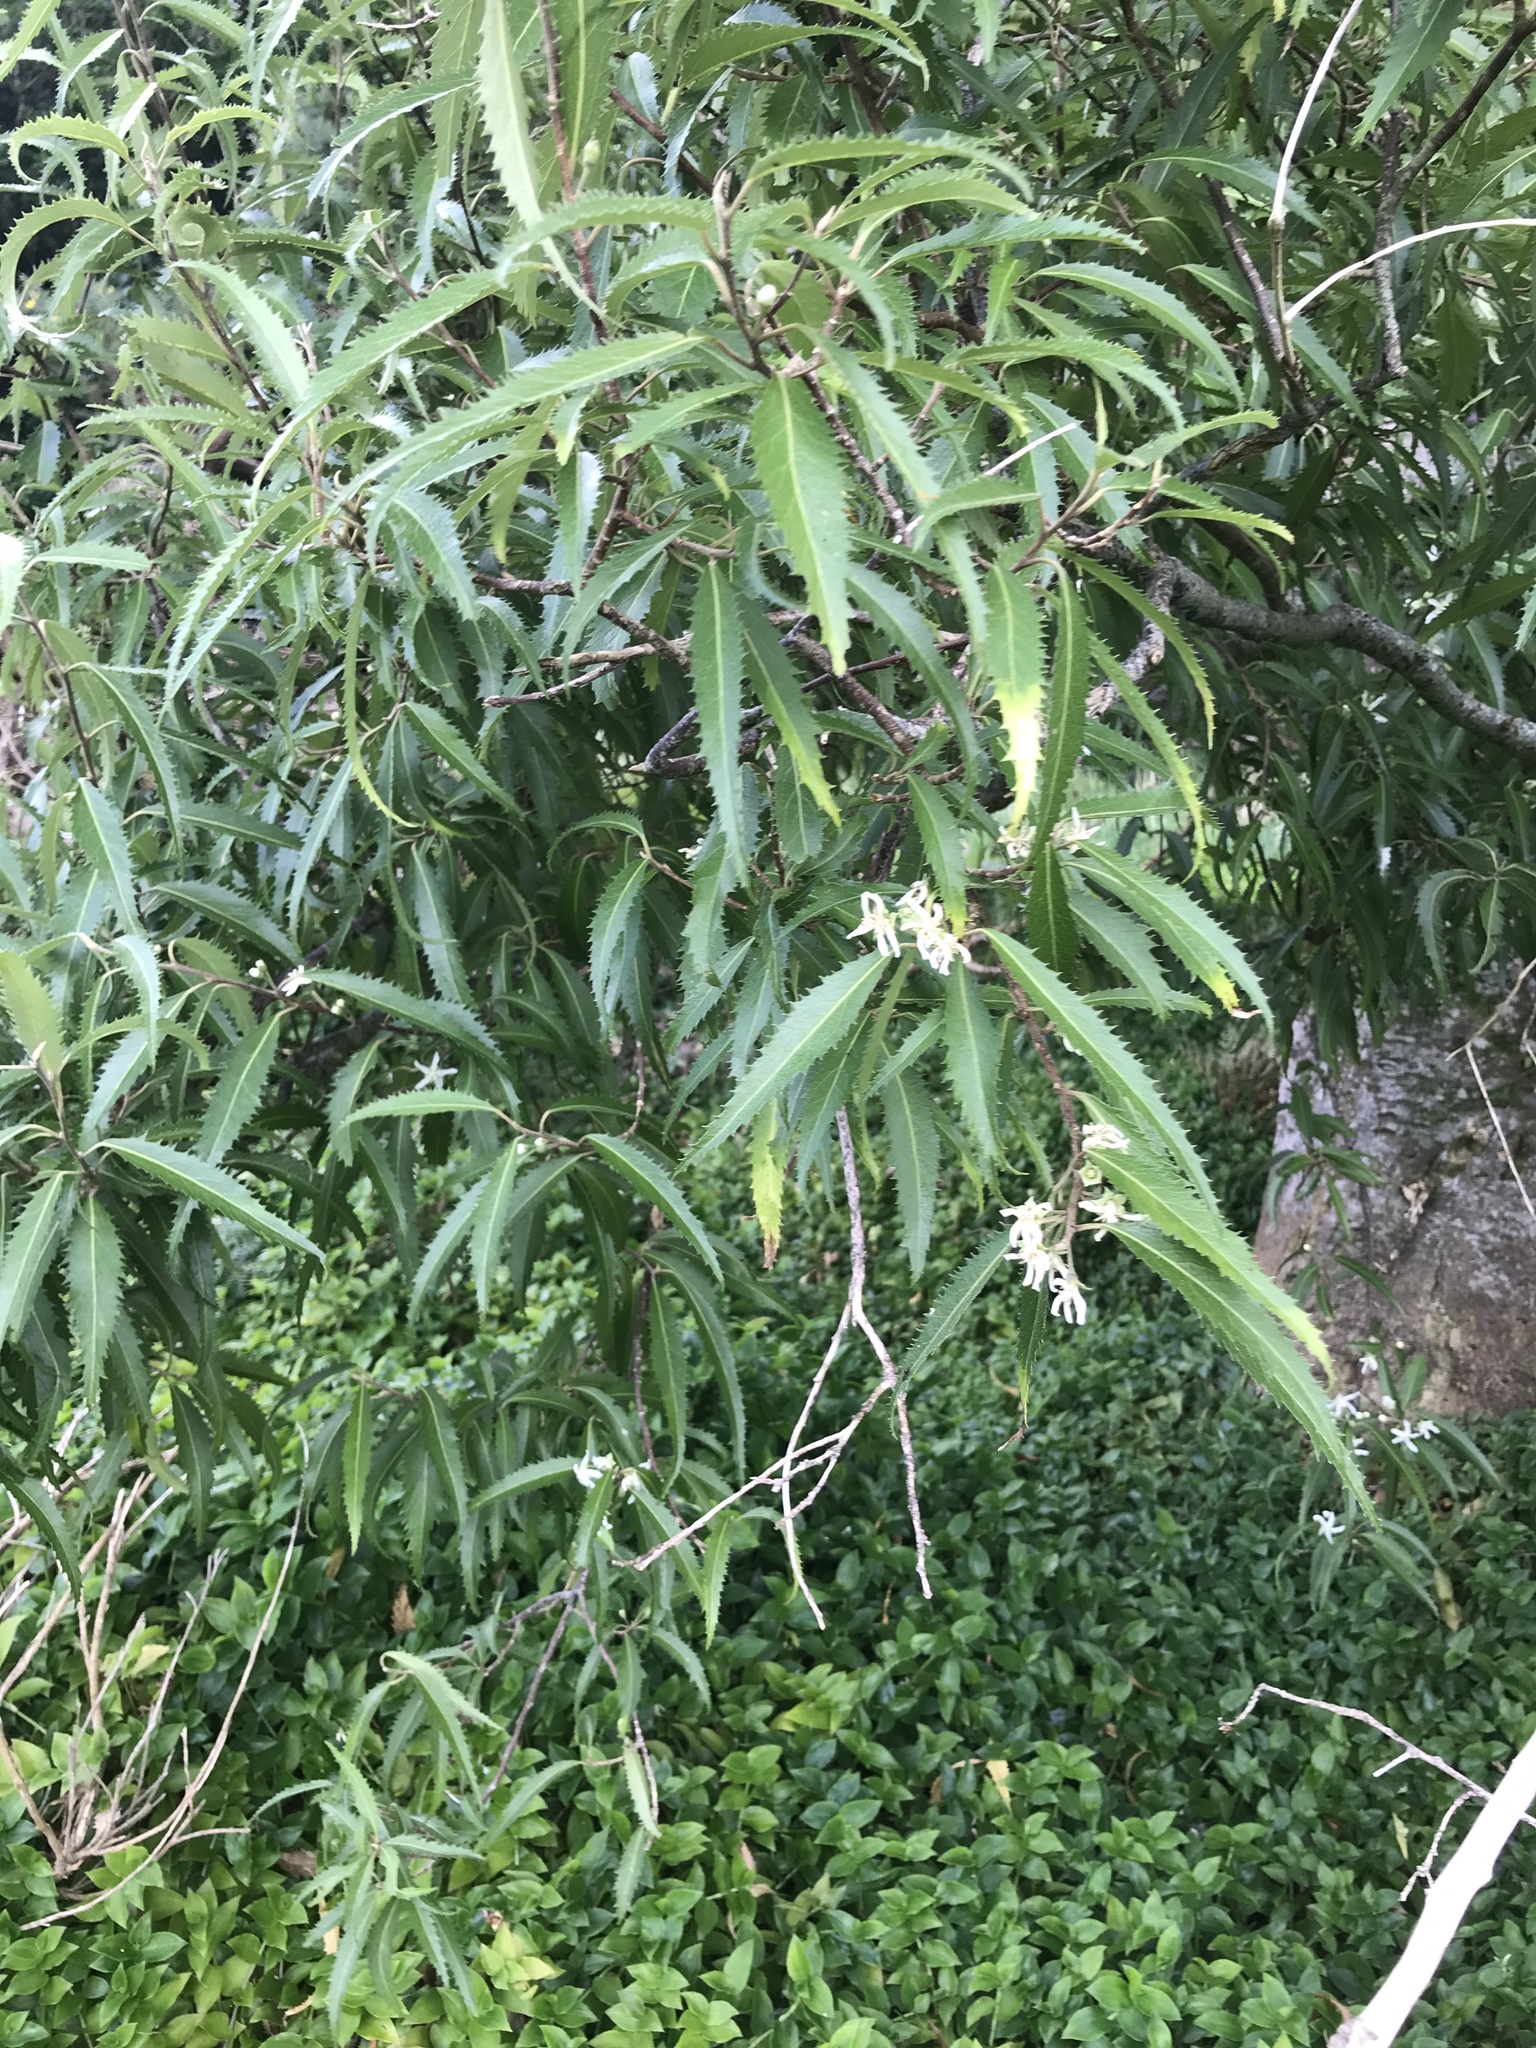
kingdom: Plantae
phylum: Tracheophyta
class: Magnoliopsida
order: Malvales
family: Malvaceae
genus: Hoheria
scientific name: Hoheria angustifolia
